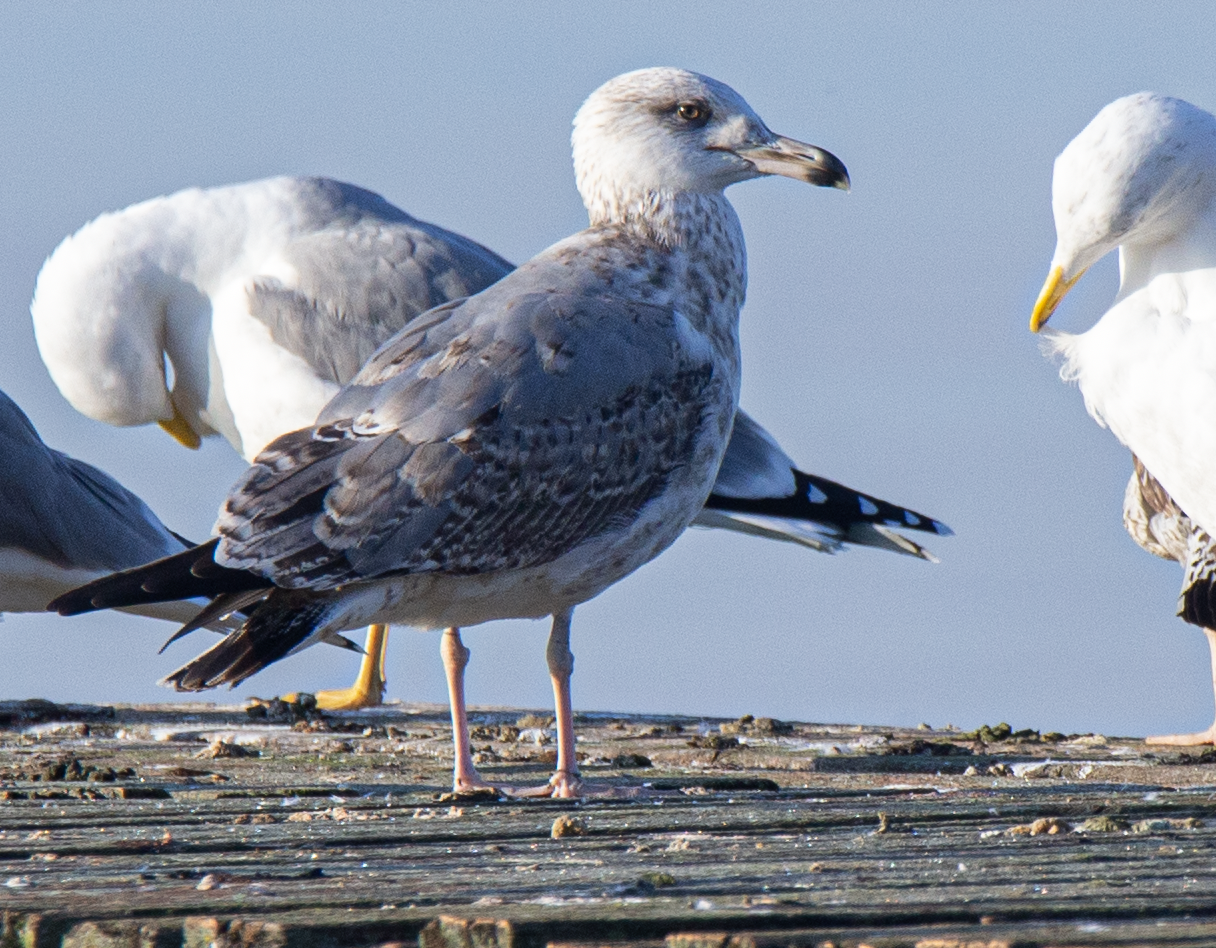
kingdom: Animalia
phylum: Chordata
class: Aves
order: Charadriiformes
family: Laridae
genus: Larus
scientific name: Larus michahellis
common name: Yellow-legged gull
